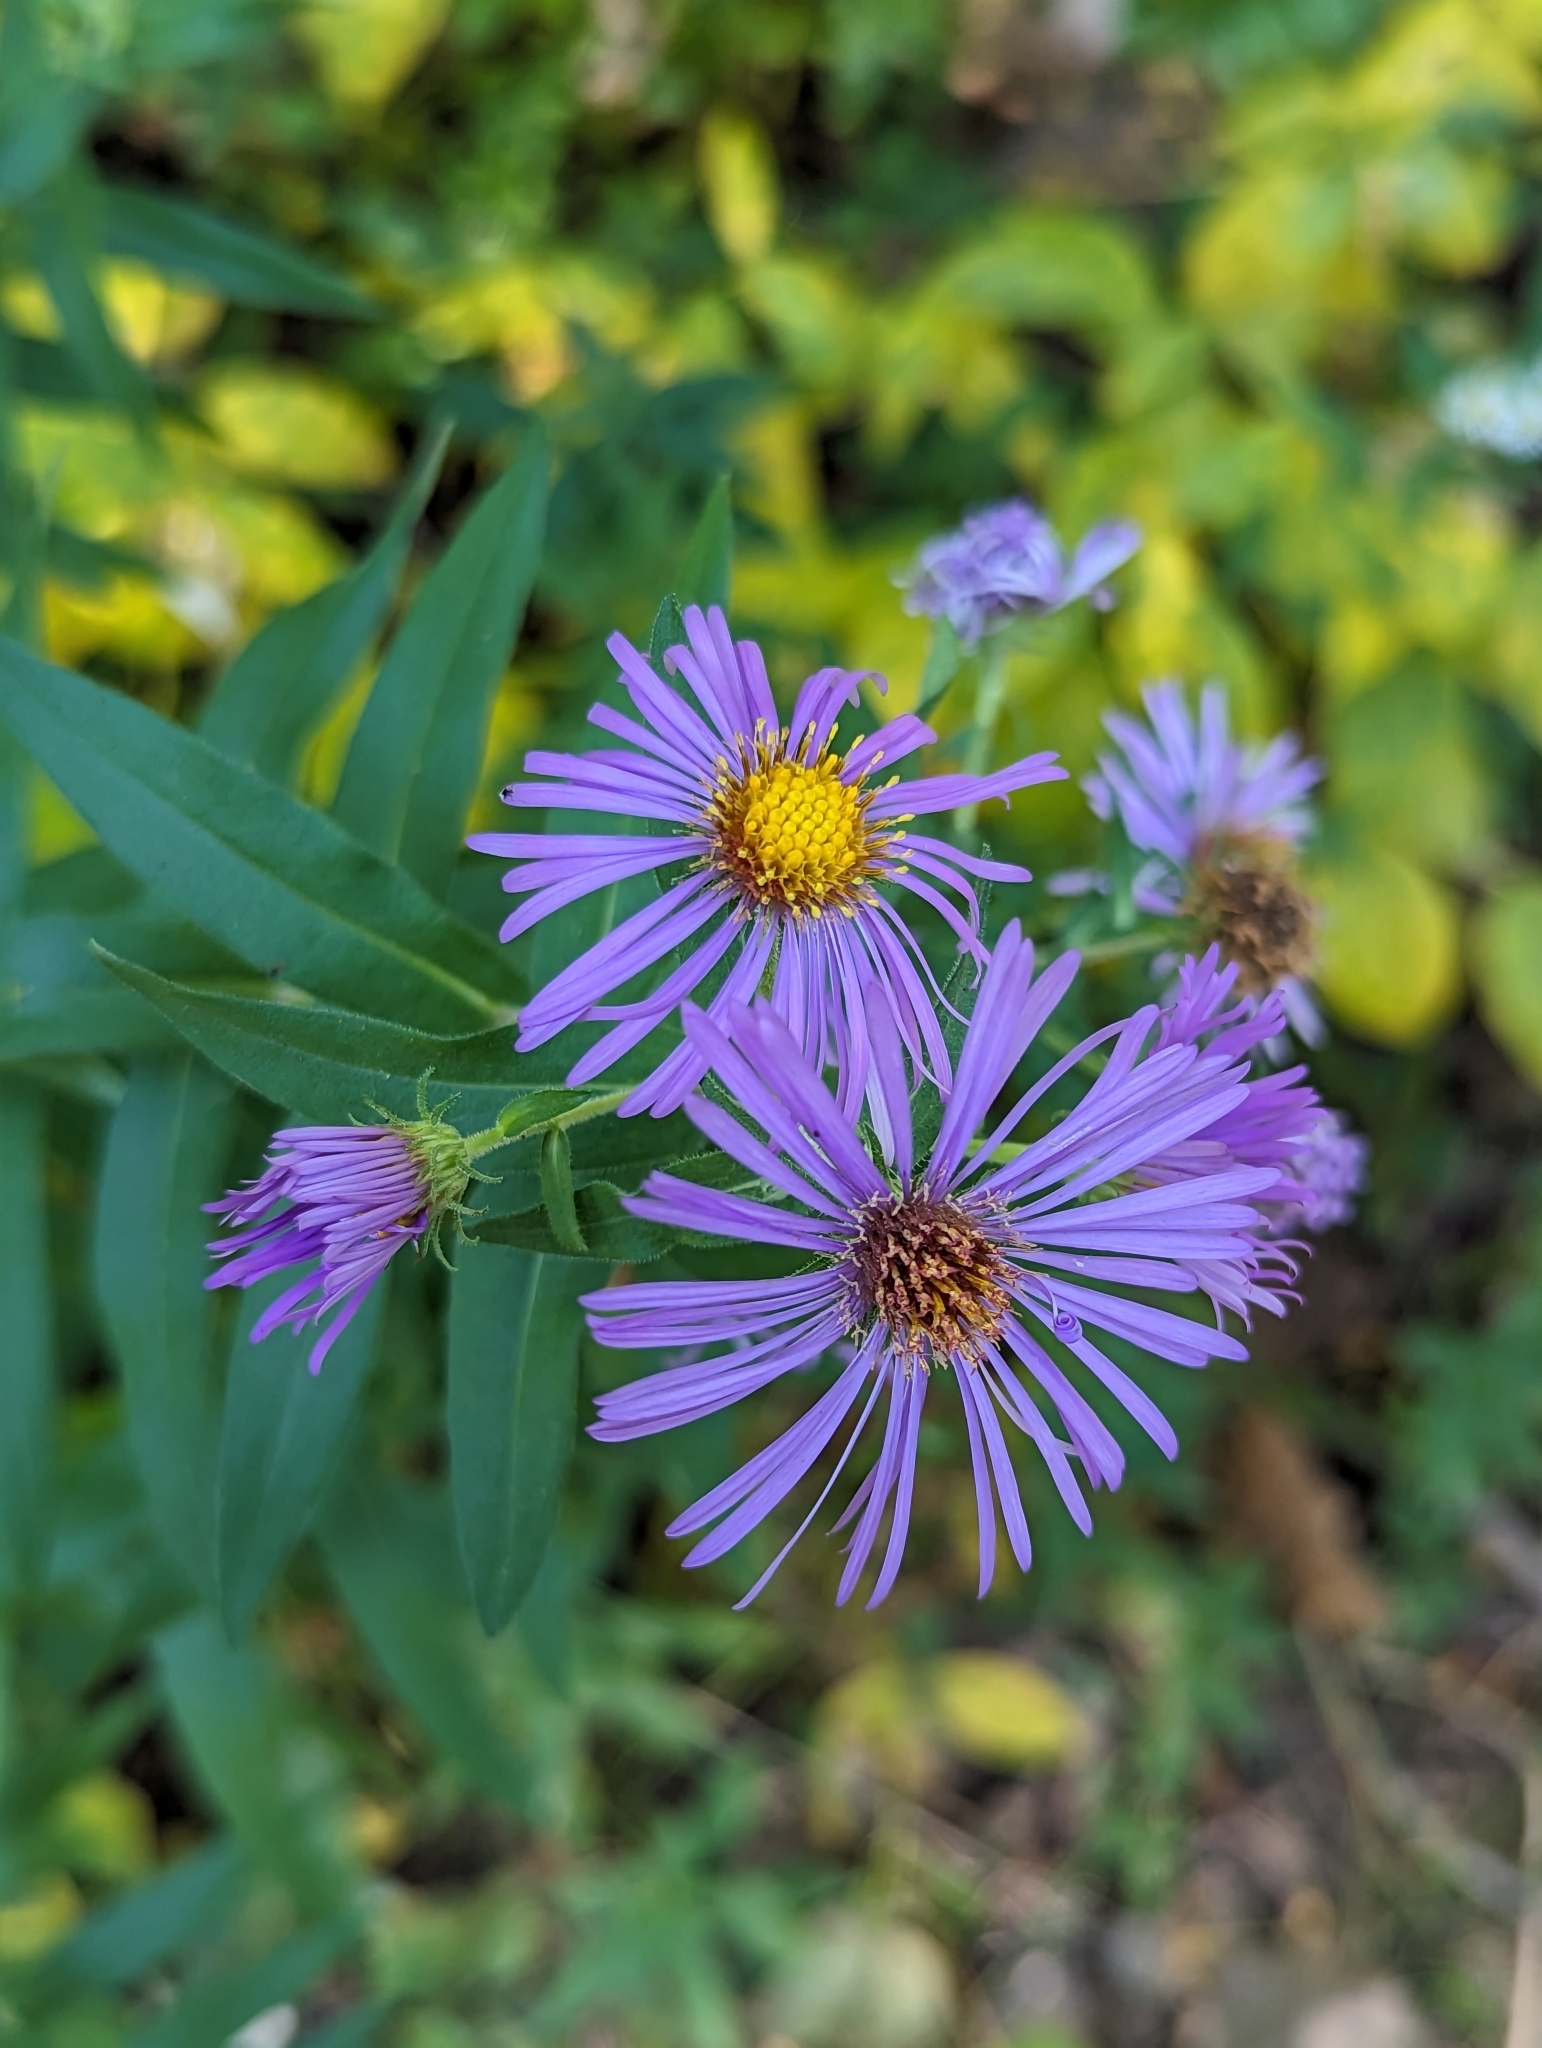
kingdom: Plantae
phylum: Tracheophyta
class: Magnoliopsida
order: Asterales
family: Asteraceae
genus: Symphyotrichum
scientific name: Symphyotrichum novae-angliae
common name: Michaelmas daisy
